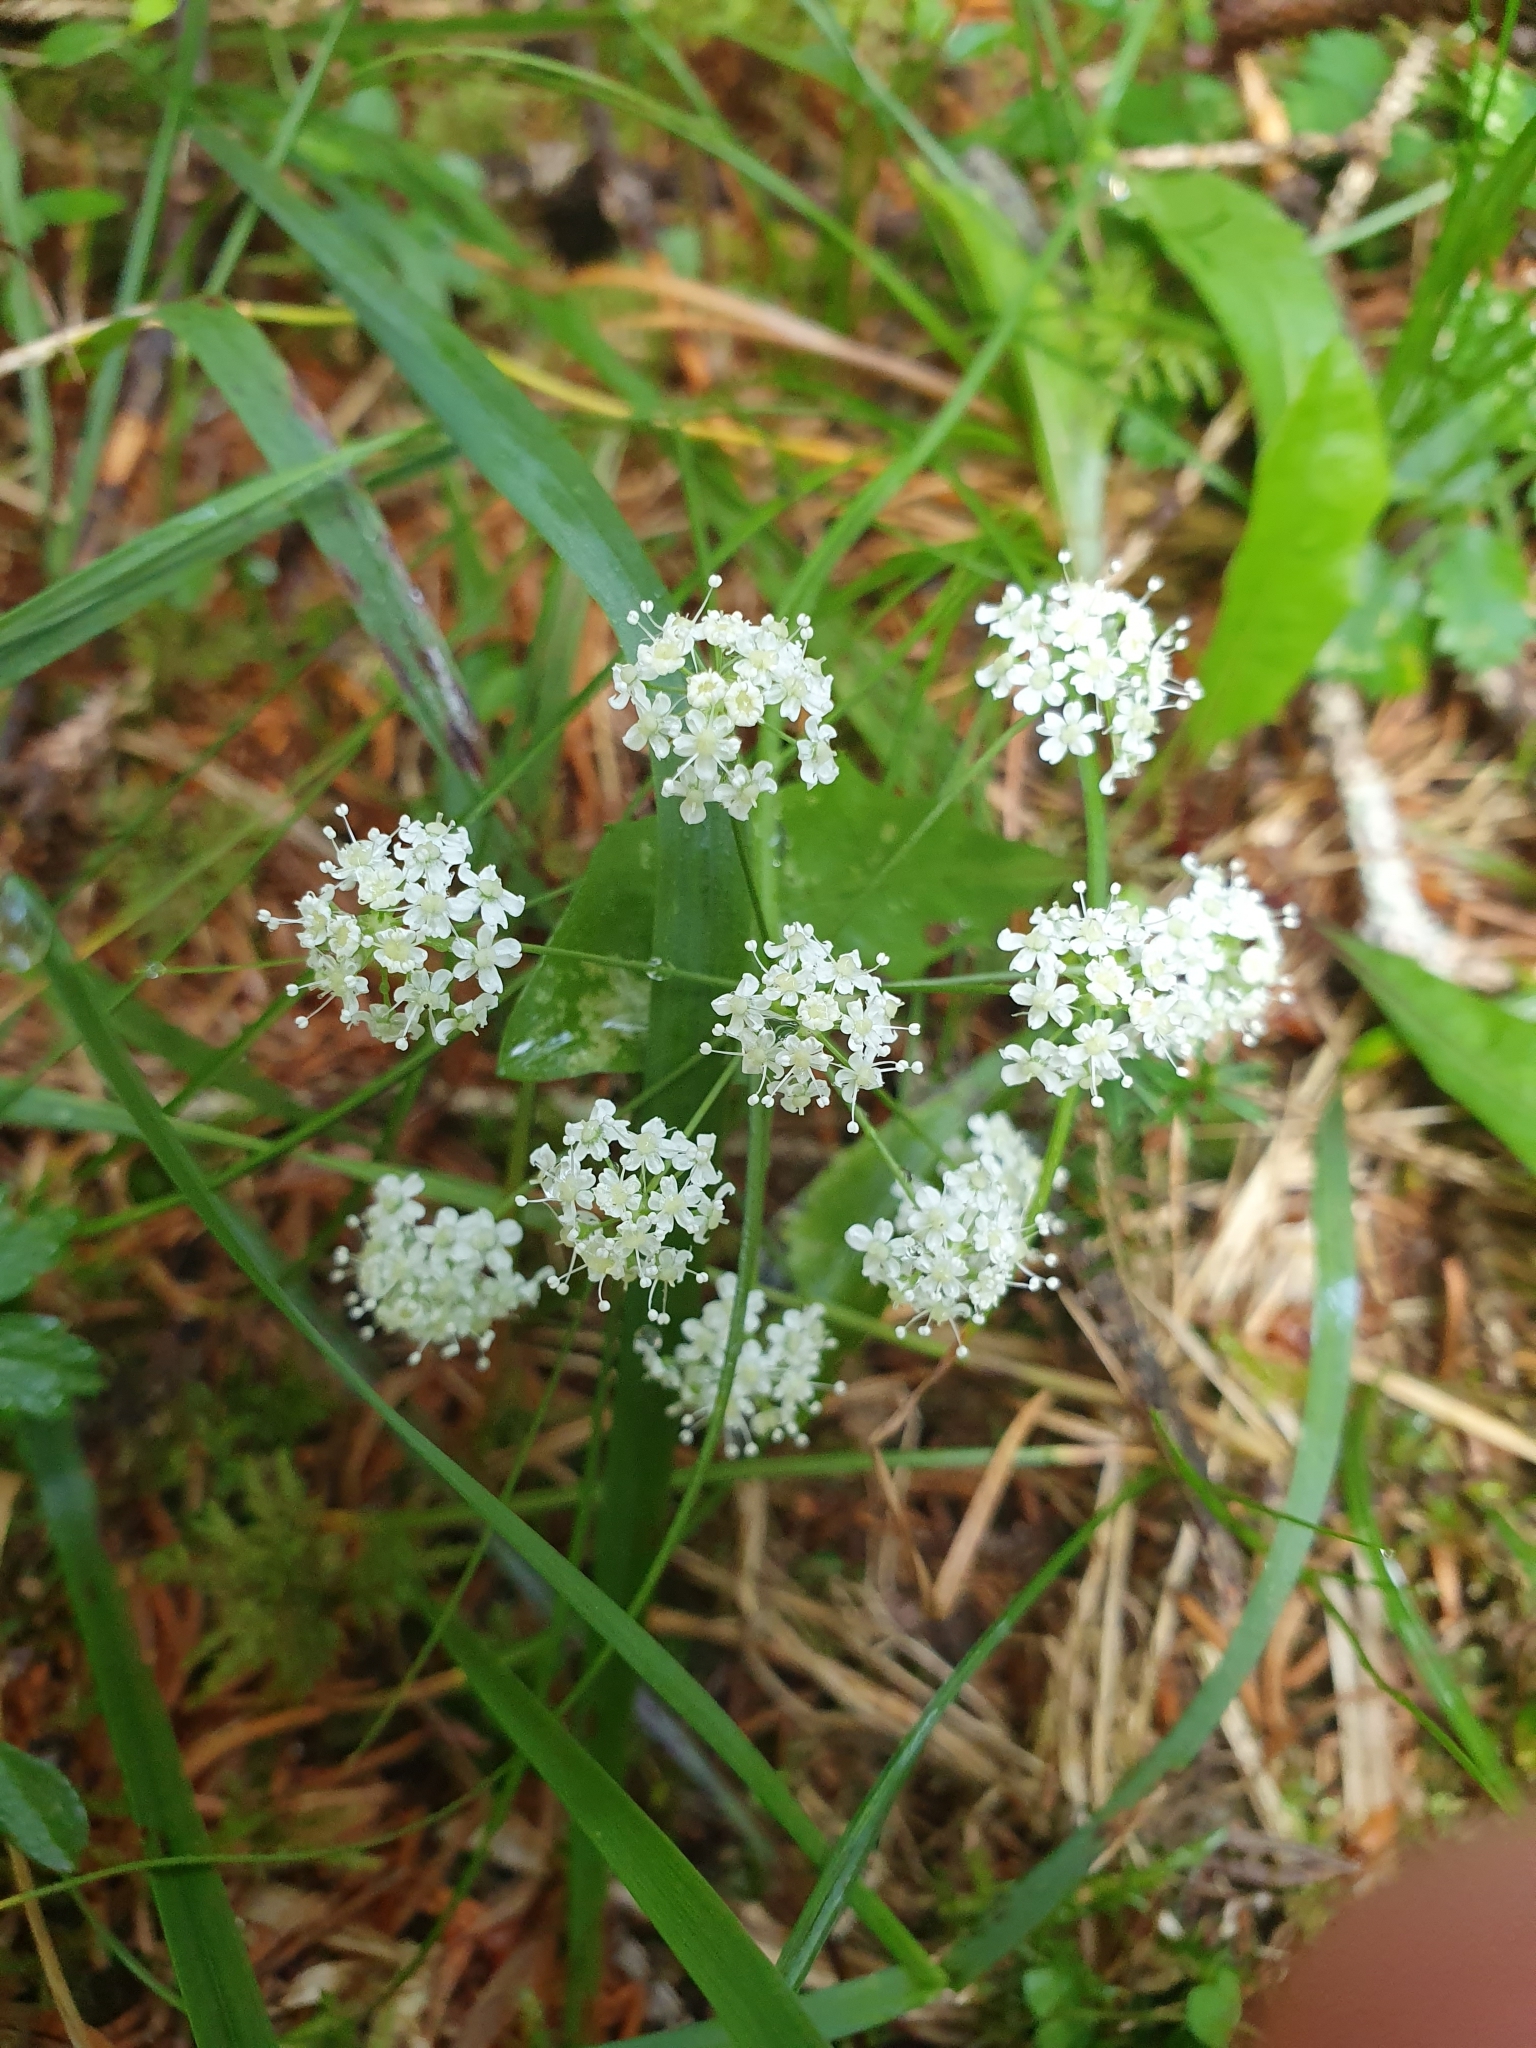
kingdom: Plantae
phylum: Tracheophyta
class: Magnoliopsida
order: Apiales
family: Apiaceae
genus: Pimpinella
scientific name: Pimpinella saxifraga
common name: Burnet-saxifrage
